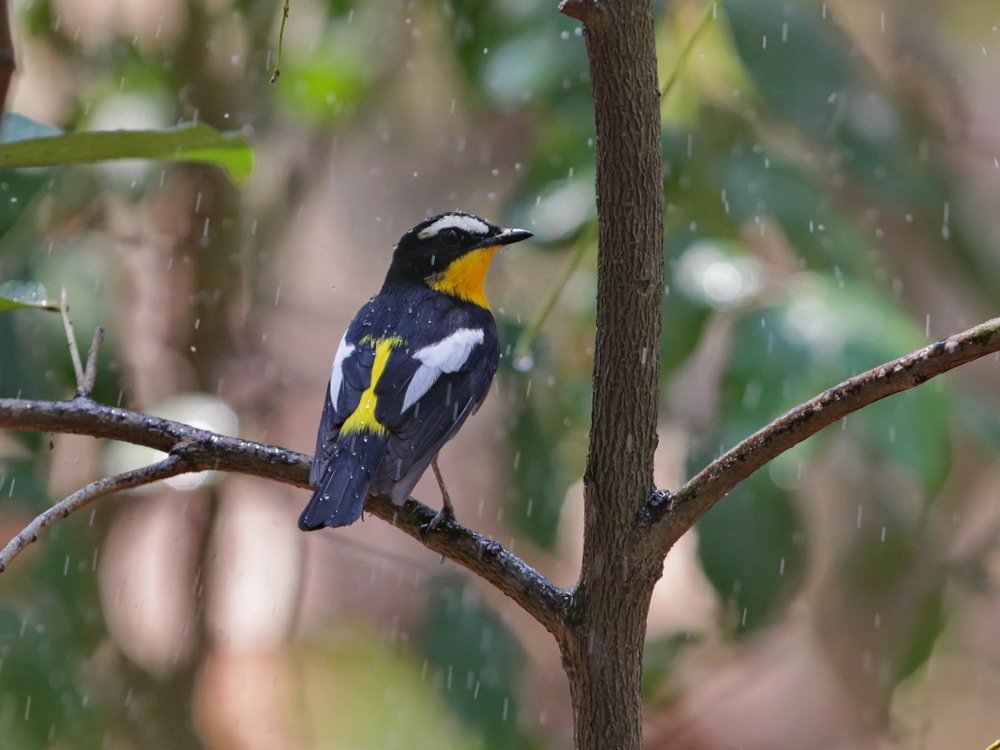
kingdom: Animalia
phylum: Chordata
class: Aves
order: Passeriformes
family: Muscicapidae
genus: Ficedula
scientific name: Ficedula zanthopygia
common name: Yellow-rumped flycatcher
